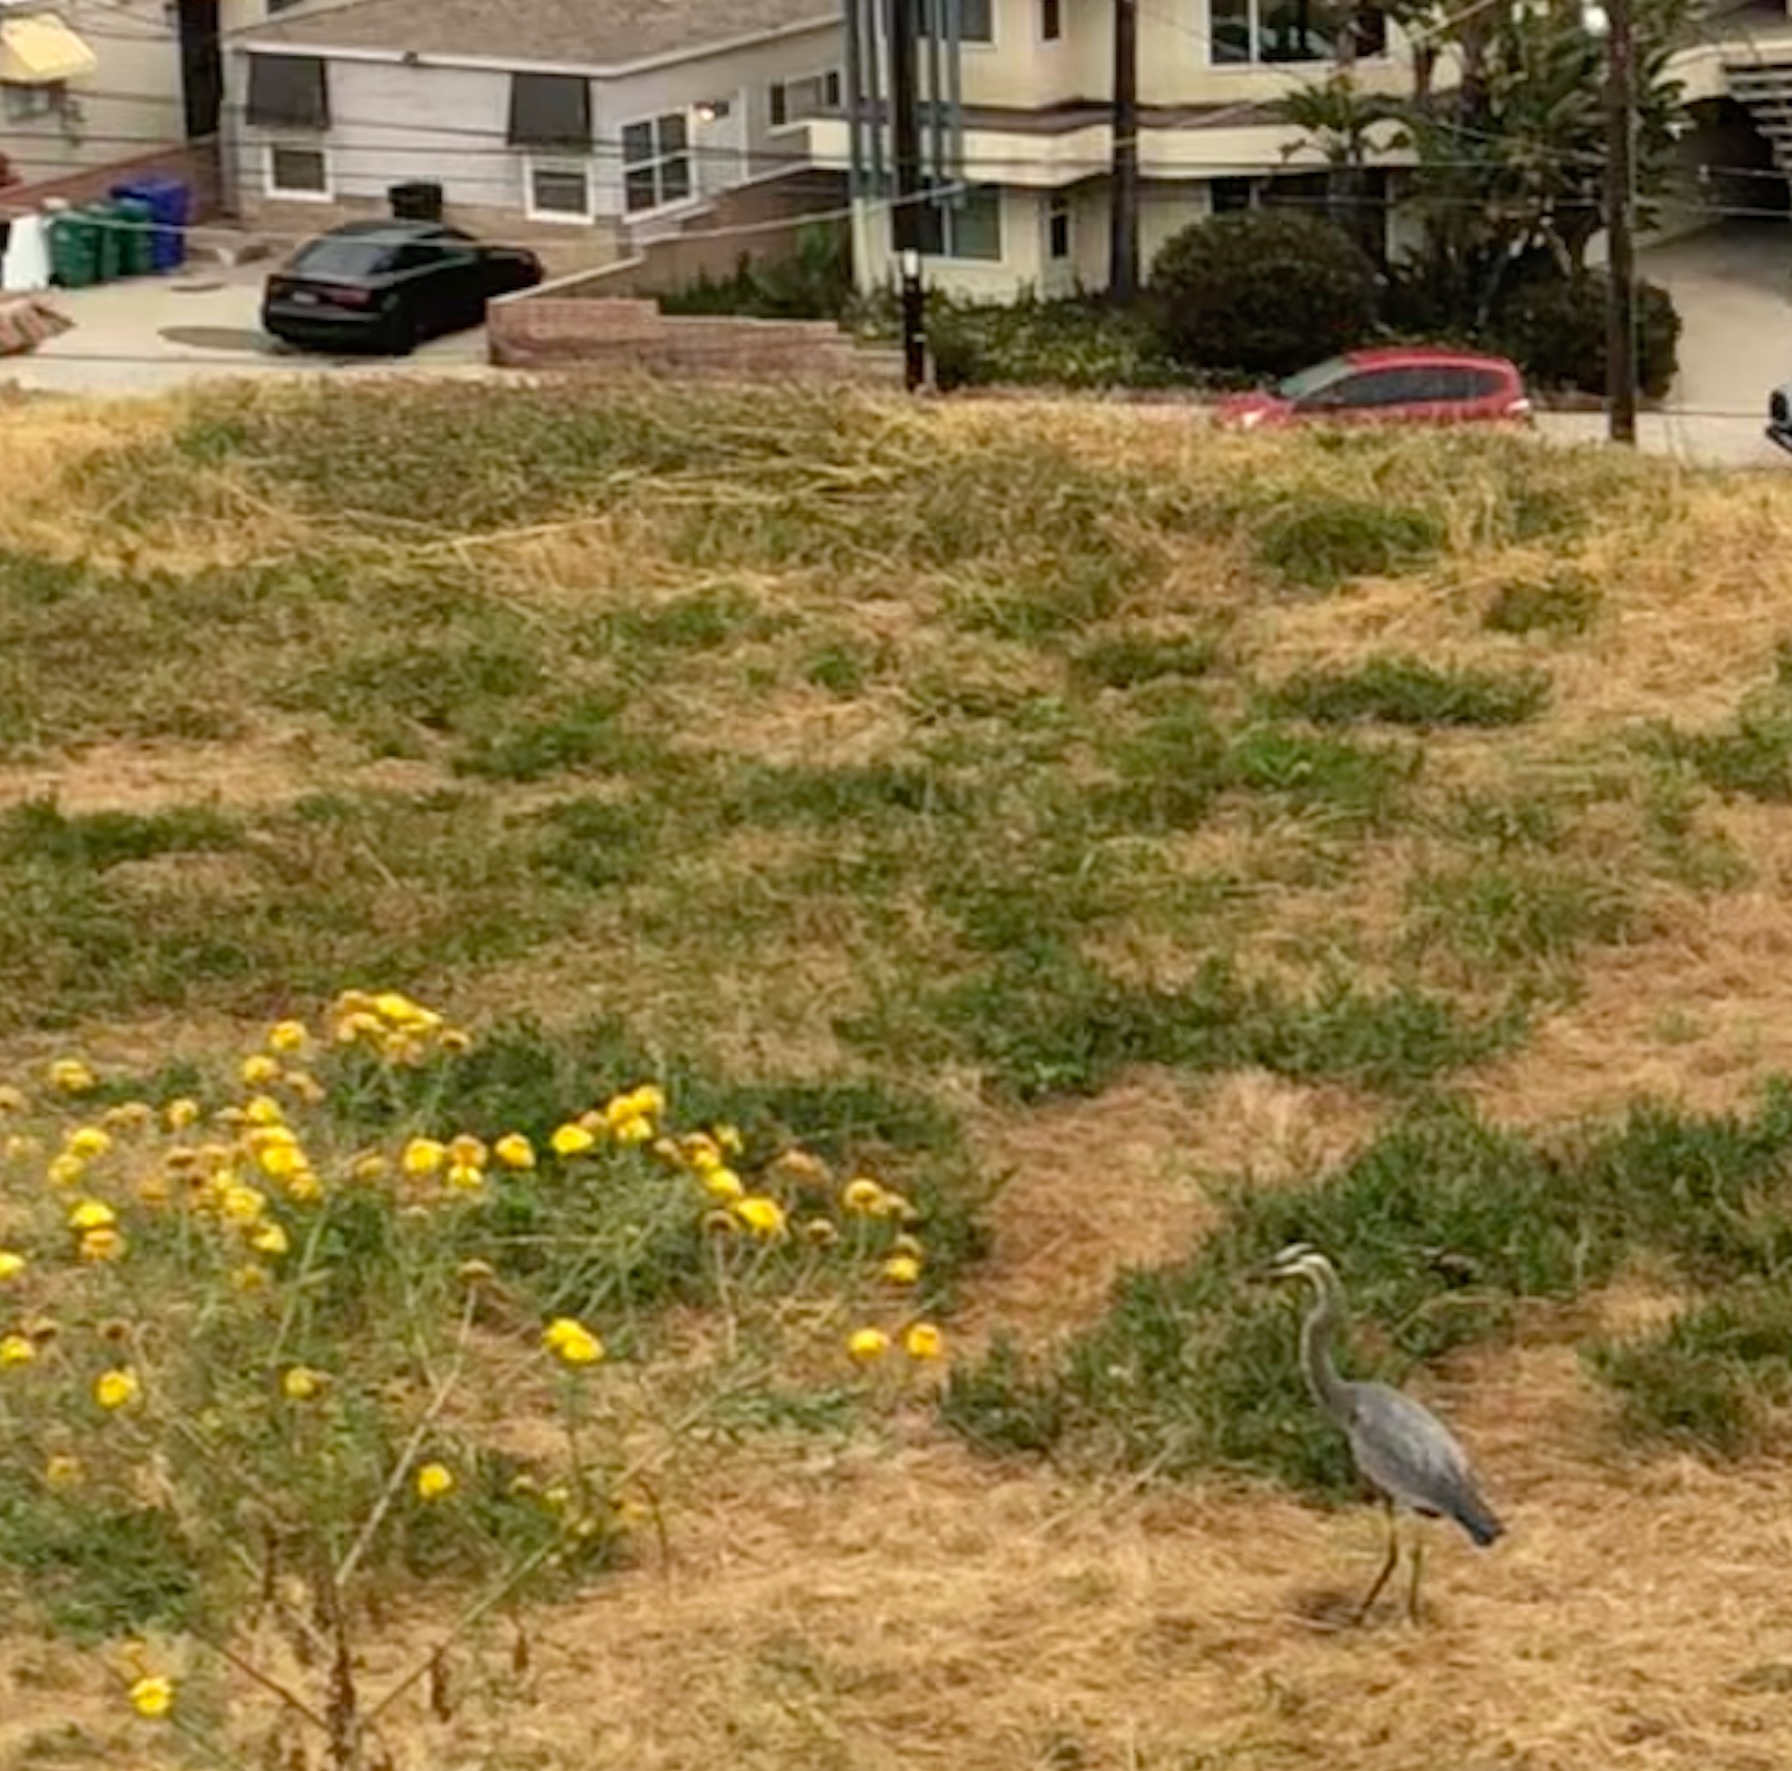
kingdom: Animalia
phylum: Chordata
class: Aves
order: Pelecaniformes
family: Ardeidae
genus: Ardea
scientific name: Ardea herodias
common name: Great blue heron
